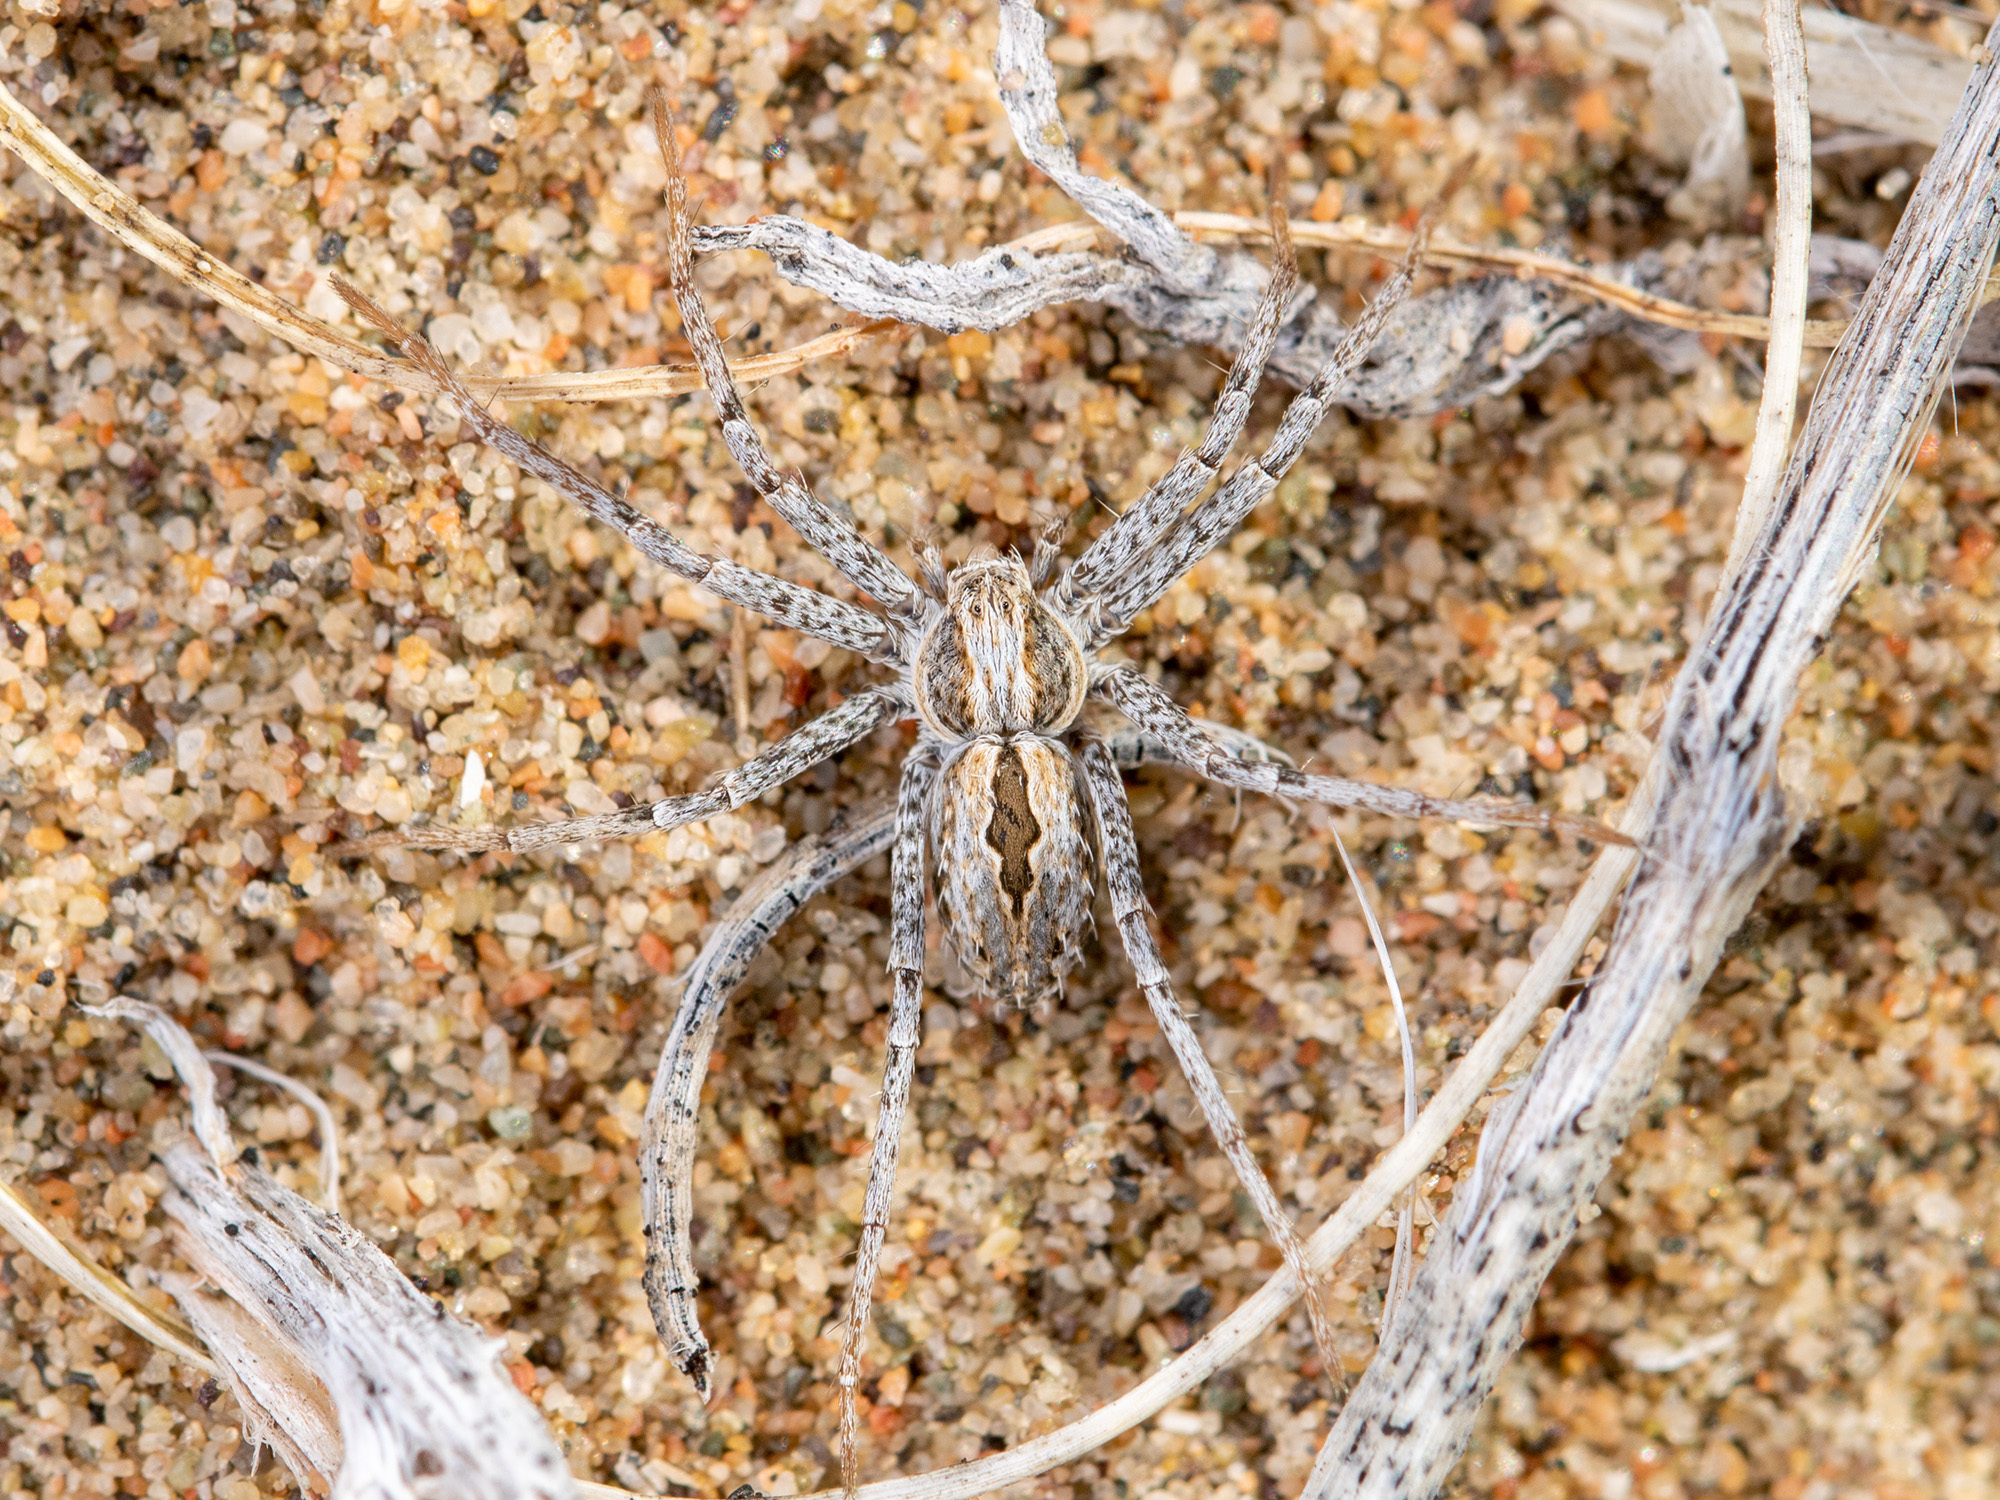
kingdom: Animalia
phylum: Arthropoda
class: Arachnida
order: Araneae
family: Philodromidae
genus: Thanatus
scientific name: Thanatus kitabensis
